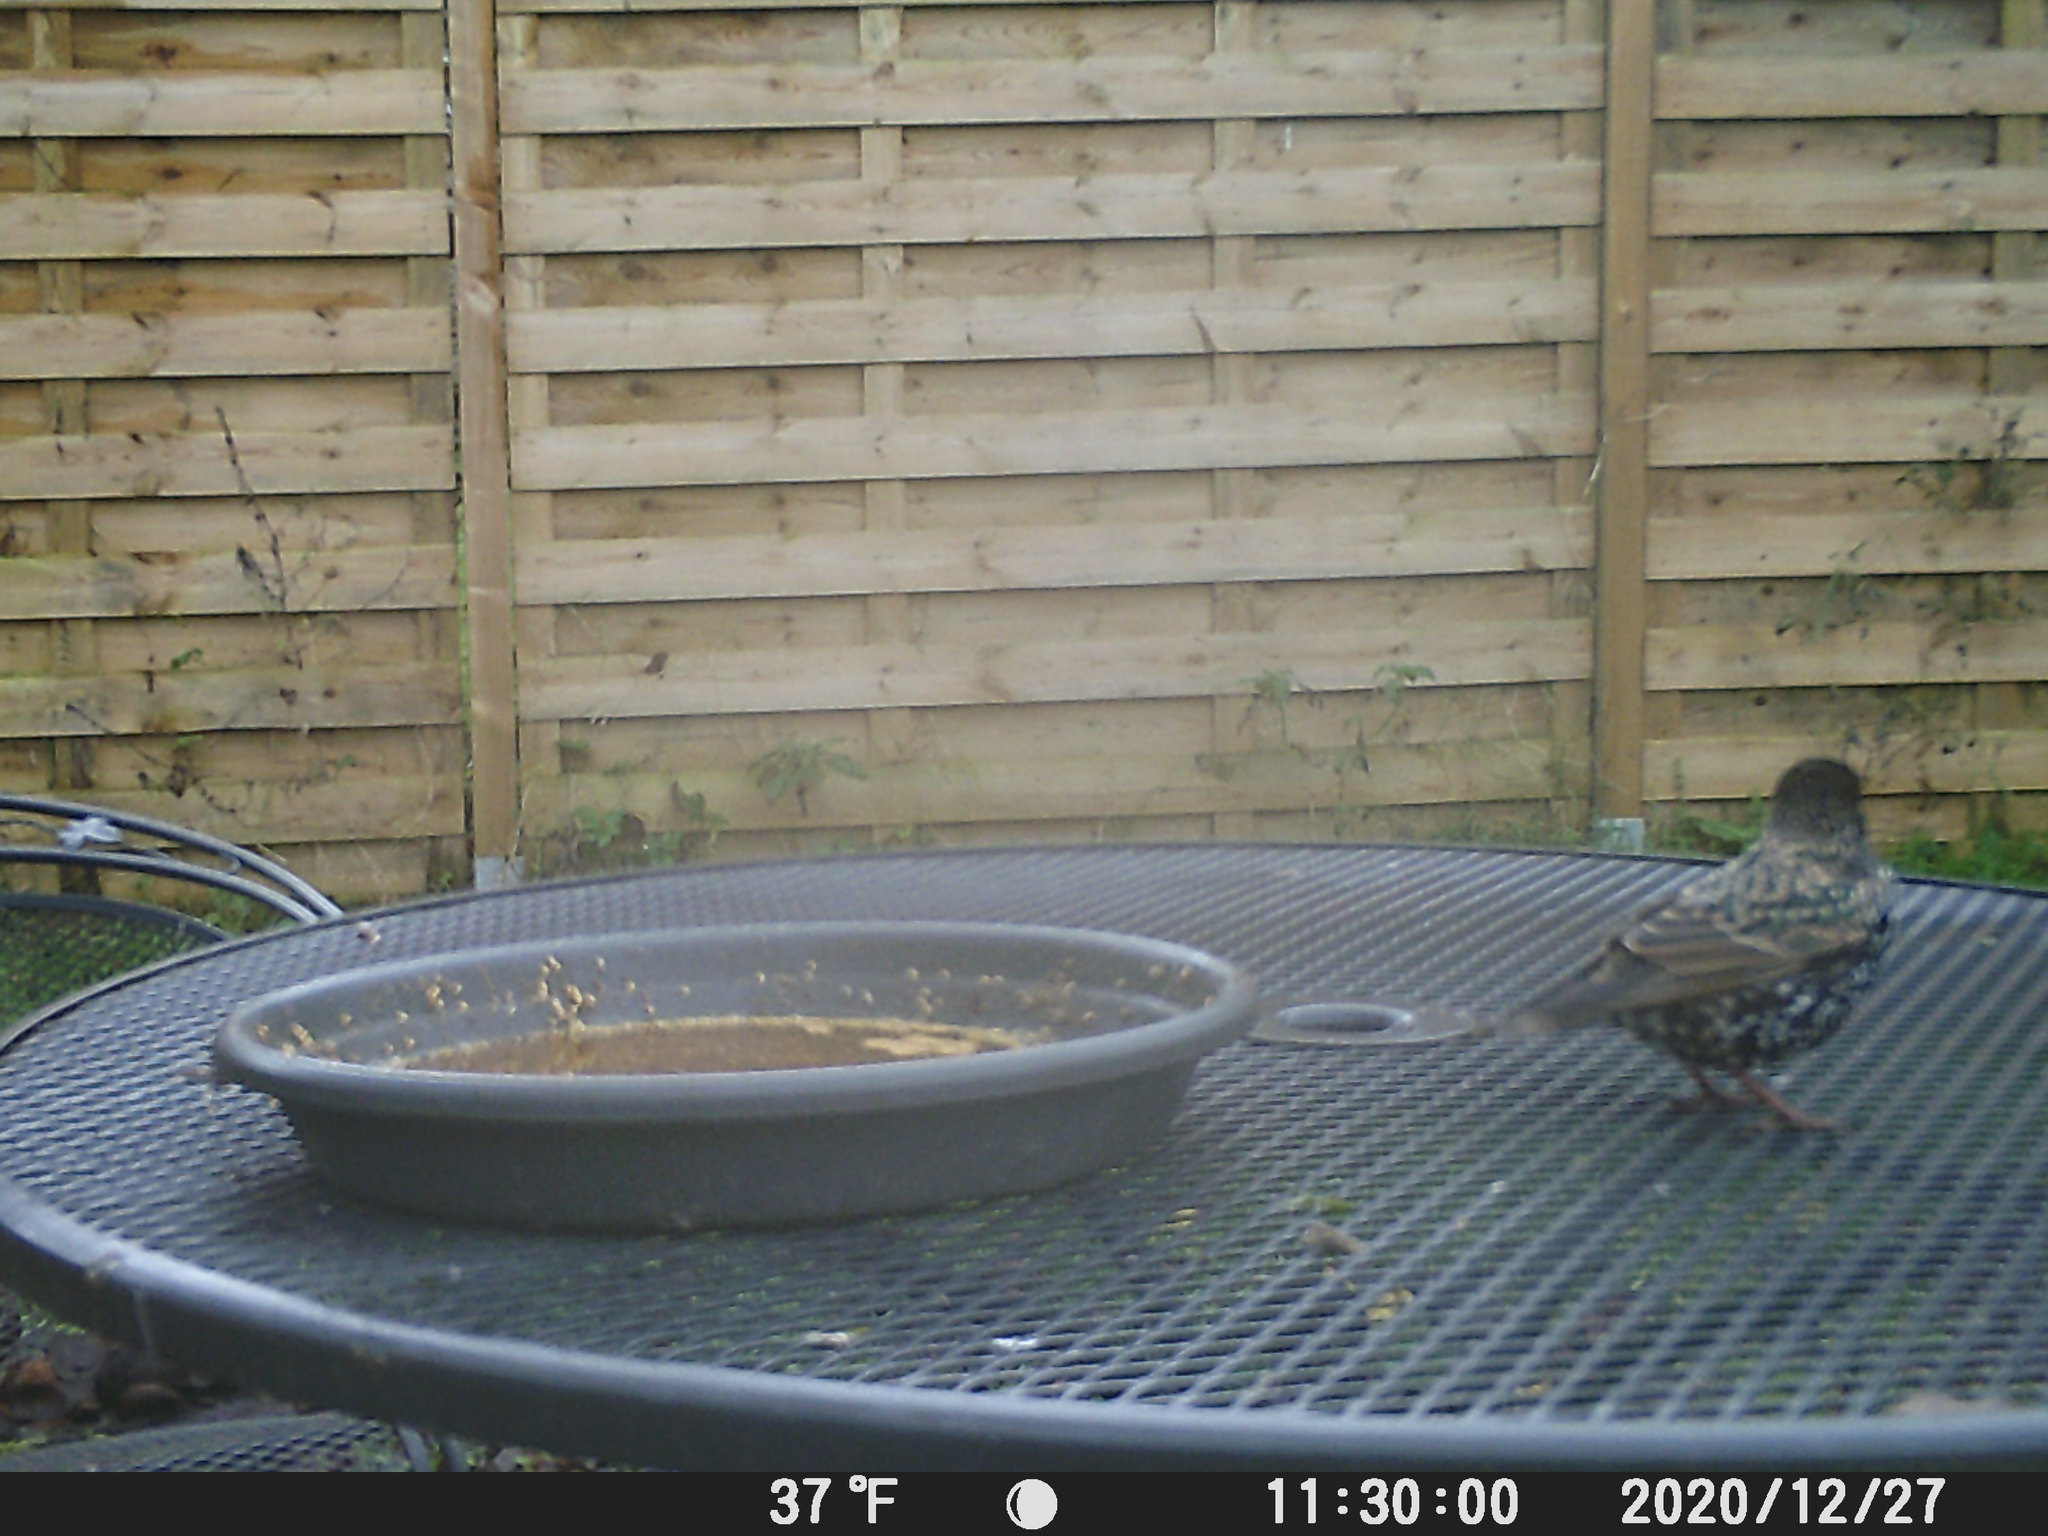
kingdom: Animalia
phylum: Chordata
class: Aves
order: Passeriformes
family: Sturnidae
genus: Sturnus
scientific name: Sturnus vulgaris
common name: Common starling
